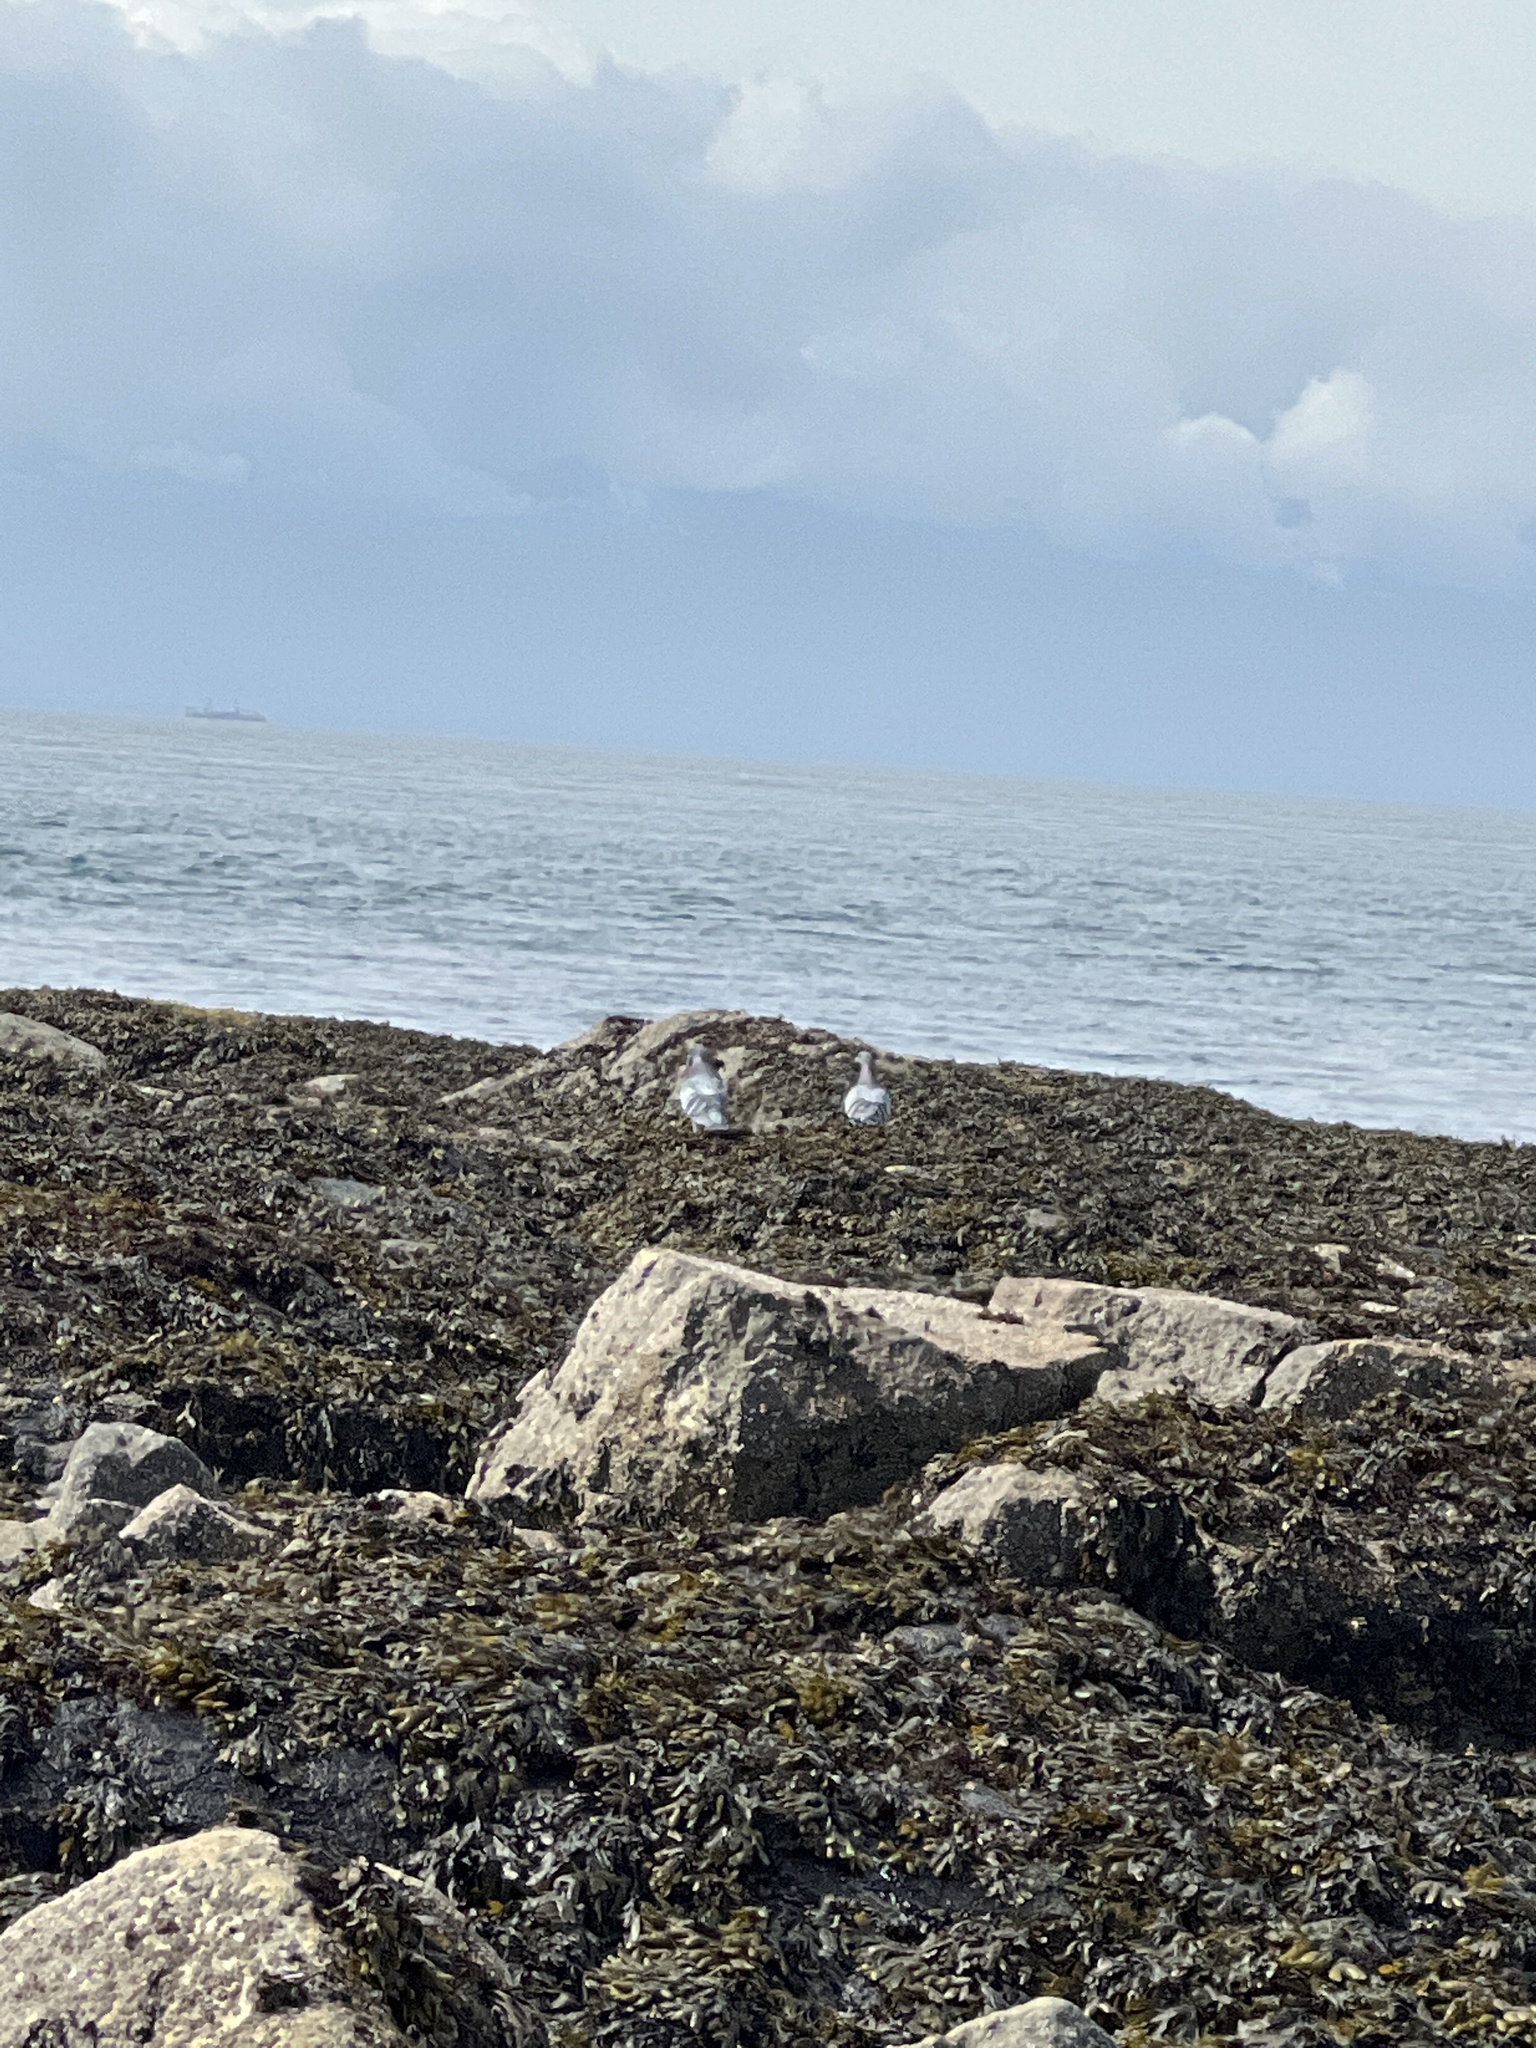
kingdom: Animalia
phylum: Chordata
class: Aves
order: Columbiformes
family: Columbidae
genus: Columba
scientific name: Columba livia
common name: Rock pigeon
